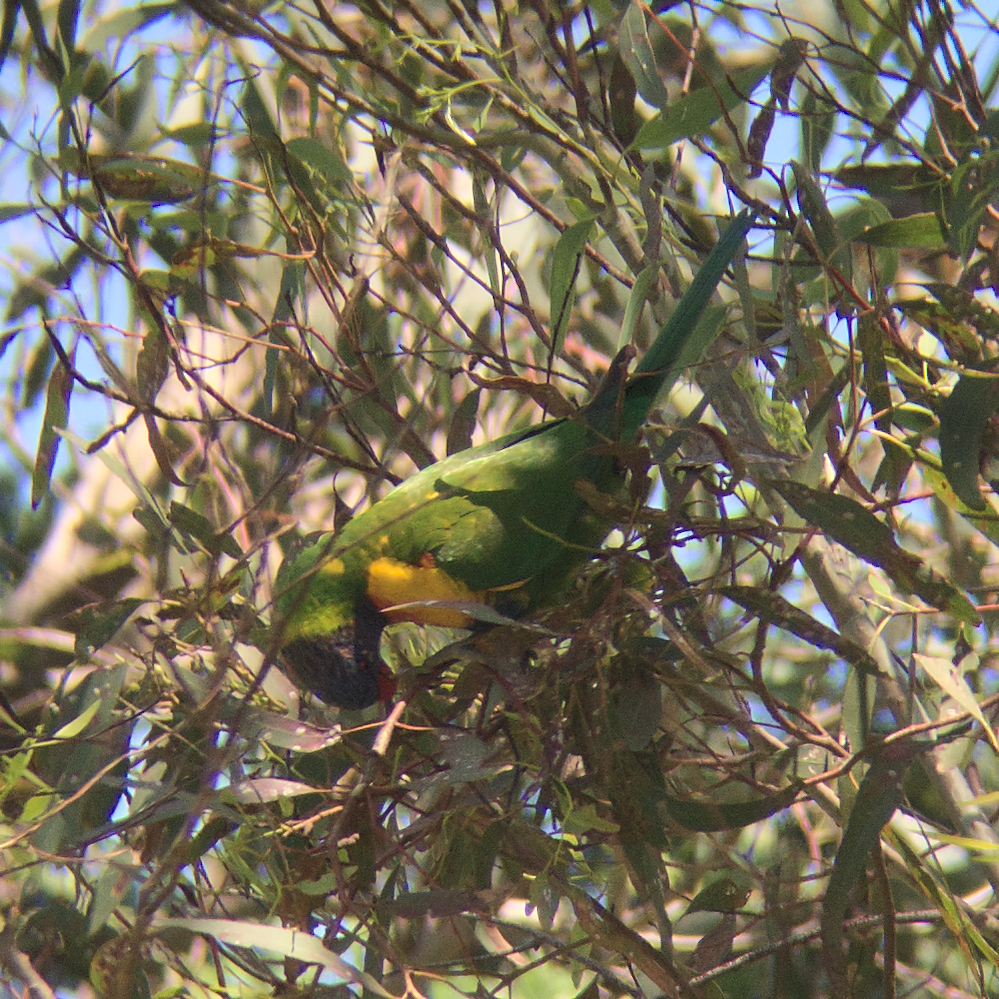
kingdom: Animalia
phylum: Chordata
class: Aves
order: Psittaciformes
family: Psittacidae
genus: Trichoglossus
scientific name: Trichoglossus haematodus
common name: Coconut lorikeet
